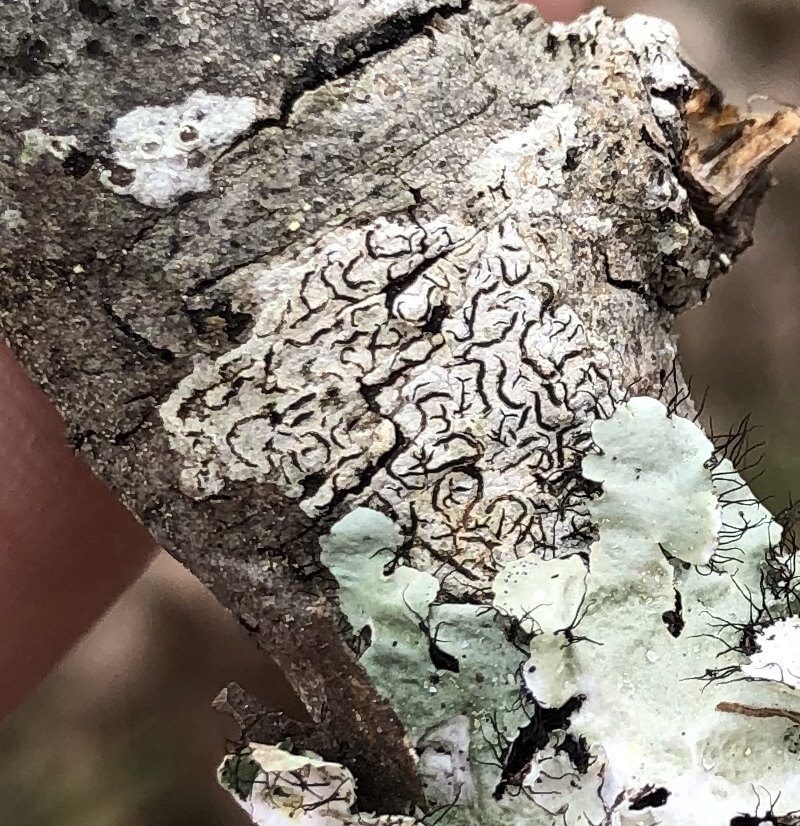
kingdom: Fungi
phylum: Ascomycota
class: Lecanoromycetes
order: Ostropales
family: Graphidaceae
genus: Graphis
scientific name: Graphis scripta
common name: Script lichen
